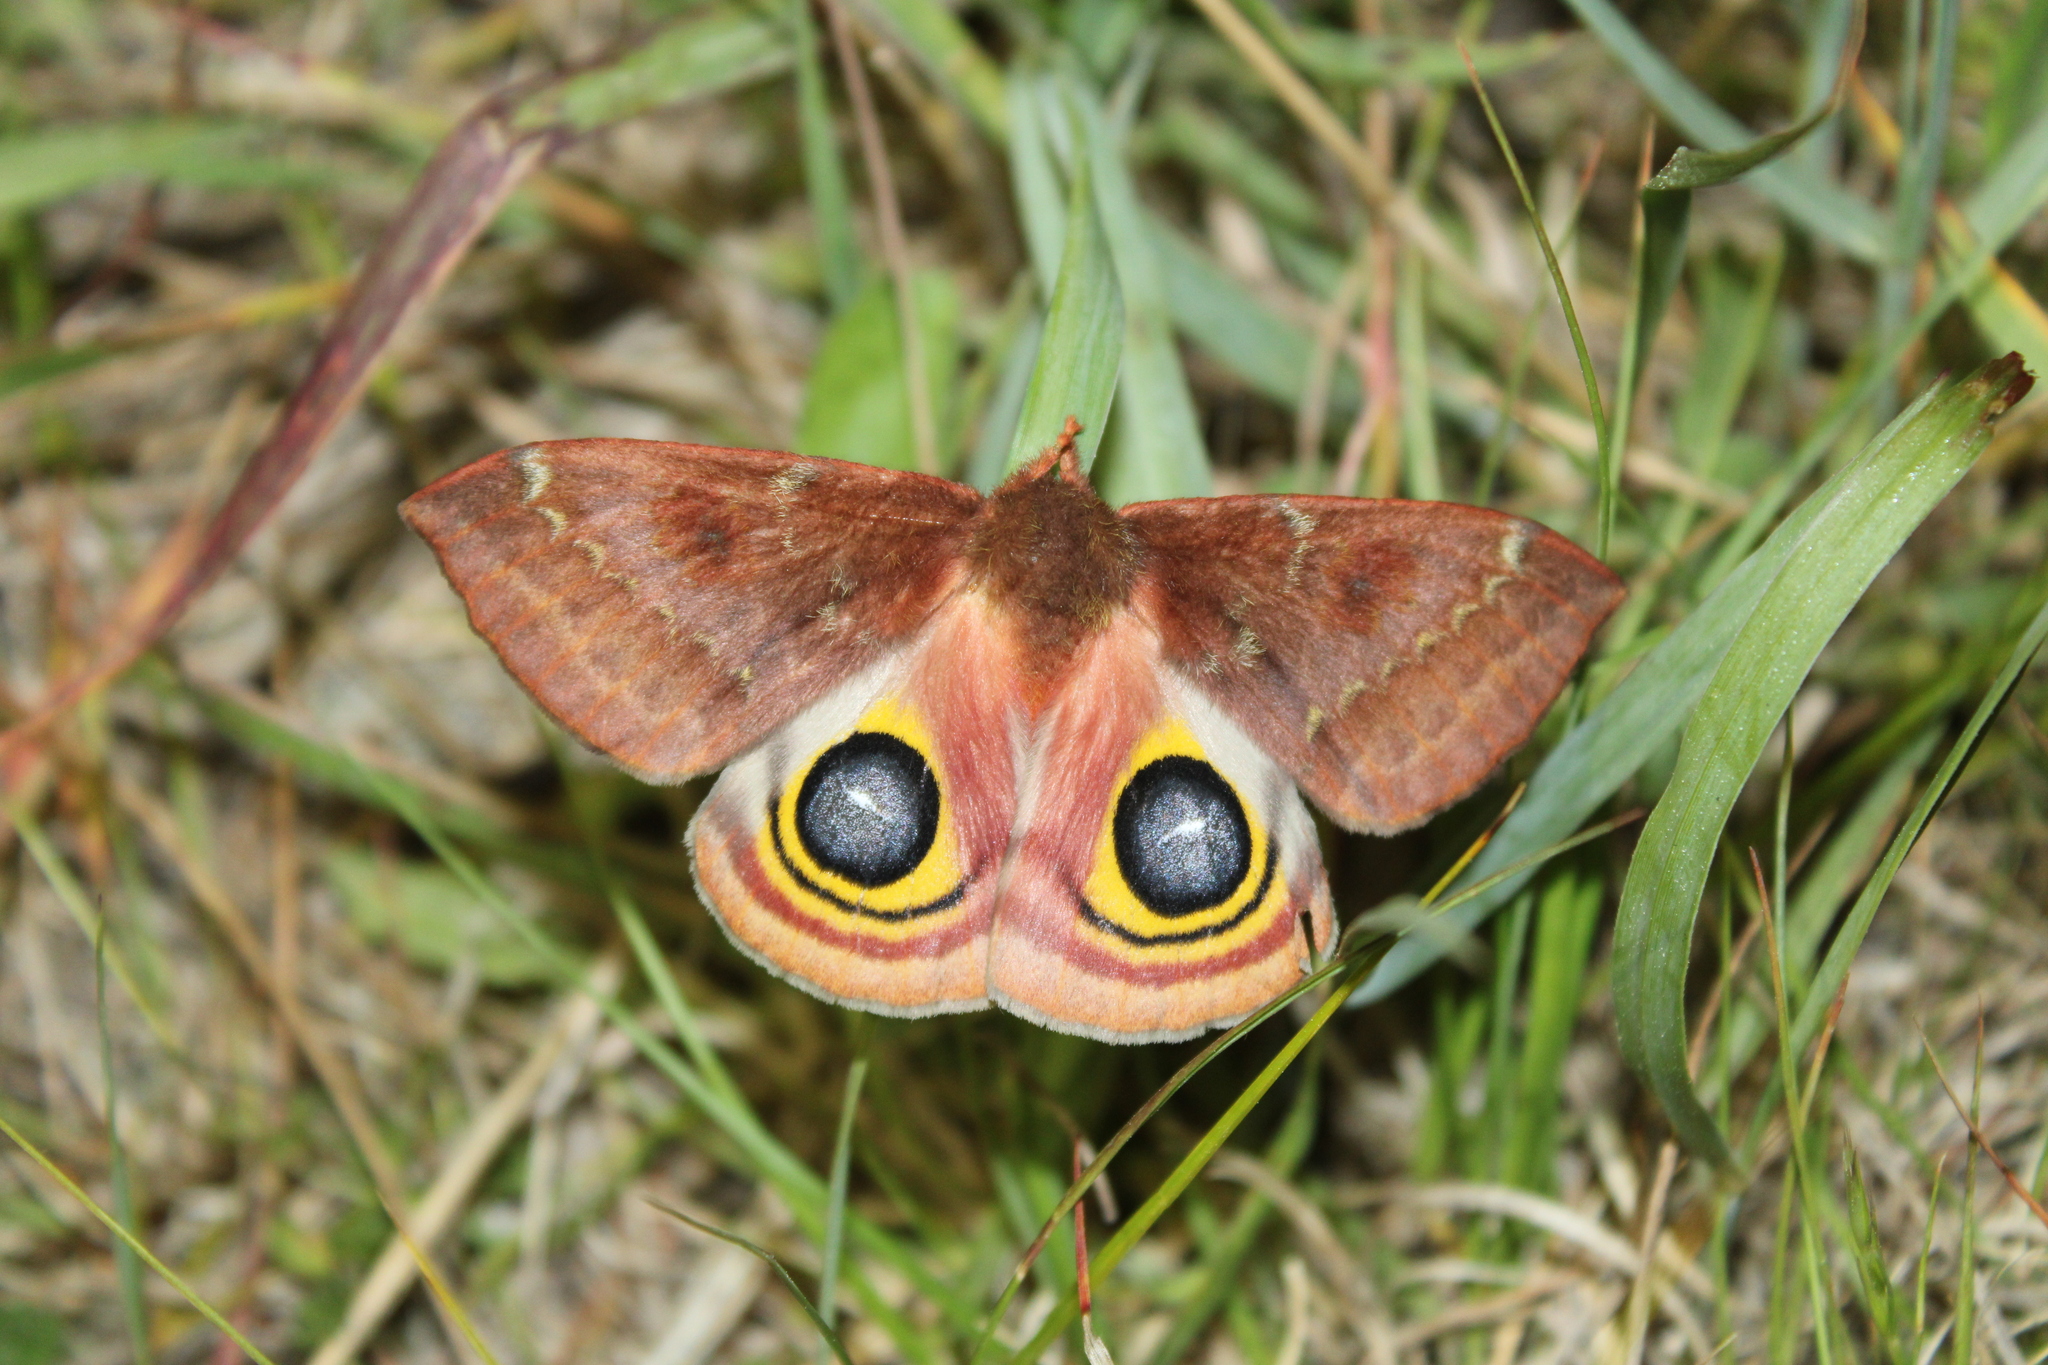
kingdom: Animalia
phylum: Arthropoda
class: Insecta
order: Lepidoptera
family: Saturniidae
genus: Automeris
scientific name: Automeris io
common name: Io moth
